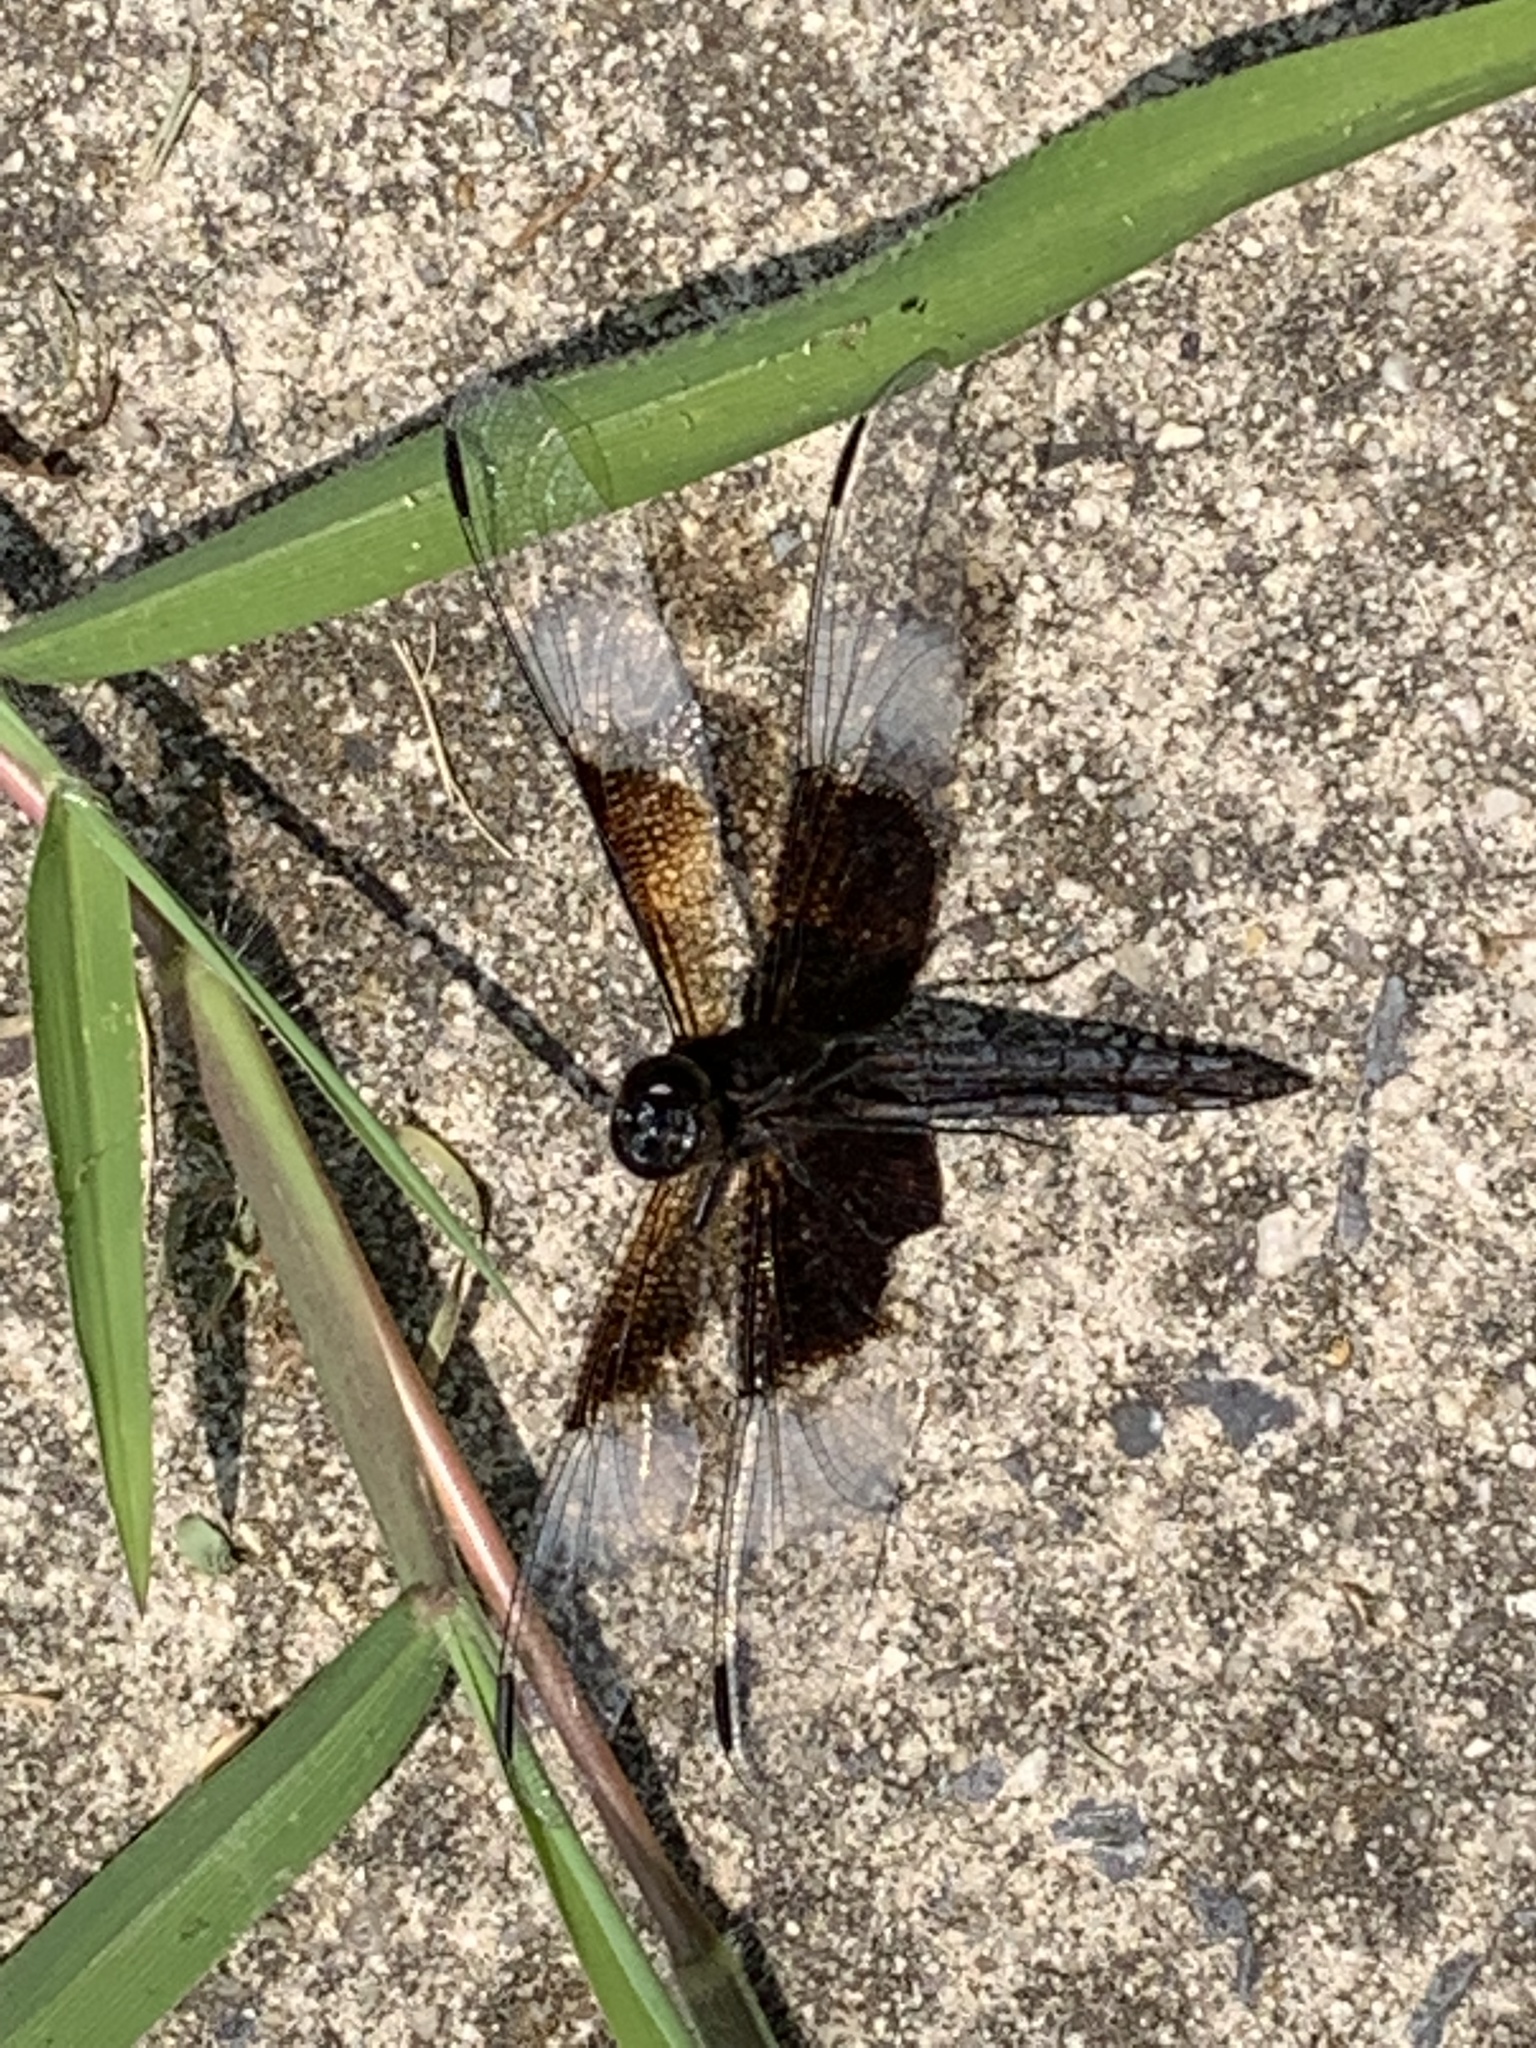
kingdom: Animalia
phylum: Arthropoda
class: Insecta
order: Odonata
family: Libellulidae
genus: Libellula
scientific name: Libellula luctuosa
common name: Widow skimmer
